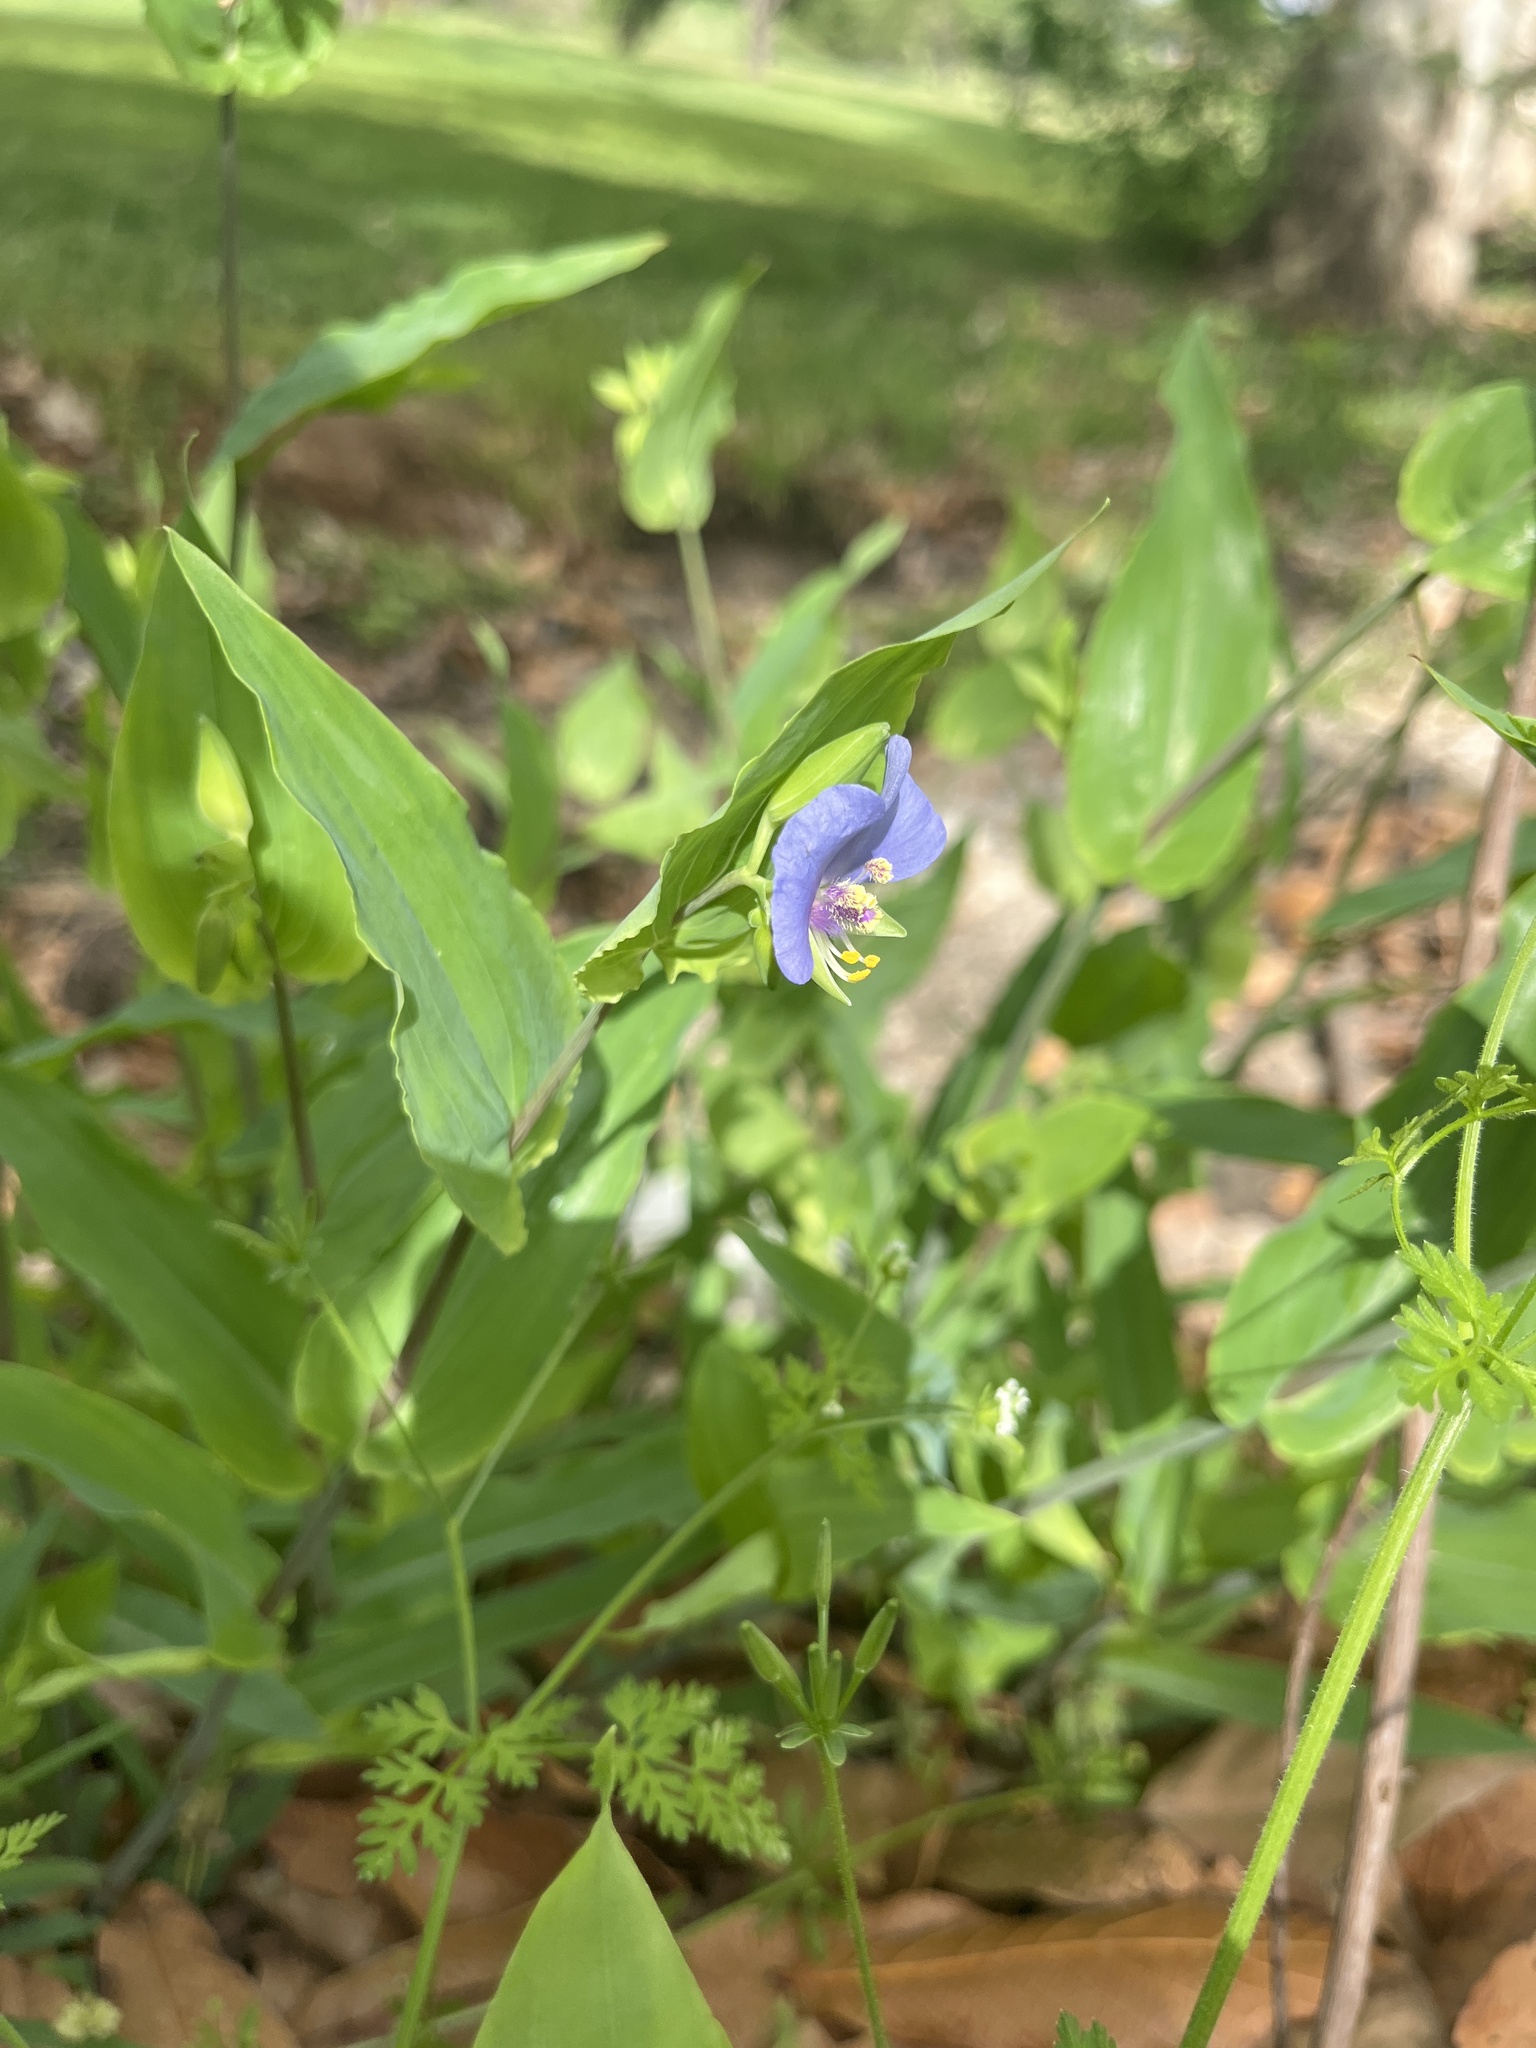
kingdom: Plantae
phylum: Tracheophyta
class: Liliopsida
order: Commelinales
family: Commelinaceae
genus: Tinantia
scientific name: Tinantia anomala
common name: False dayflower
